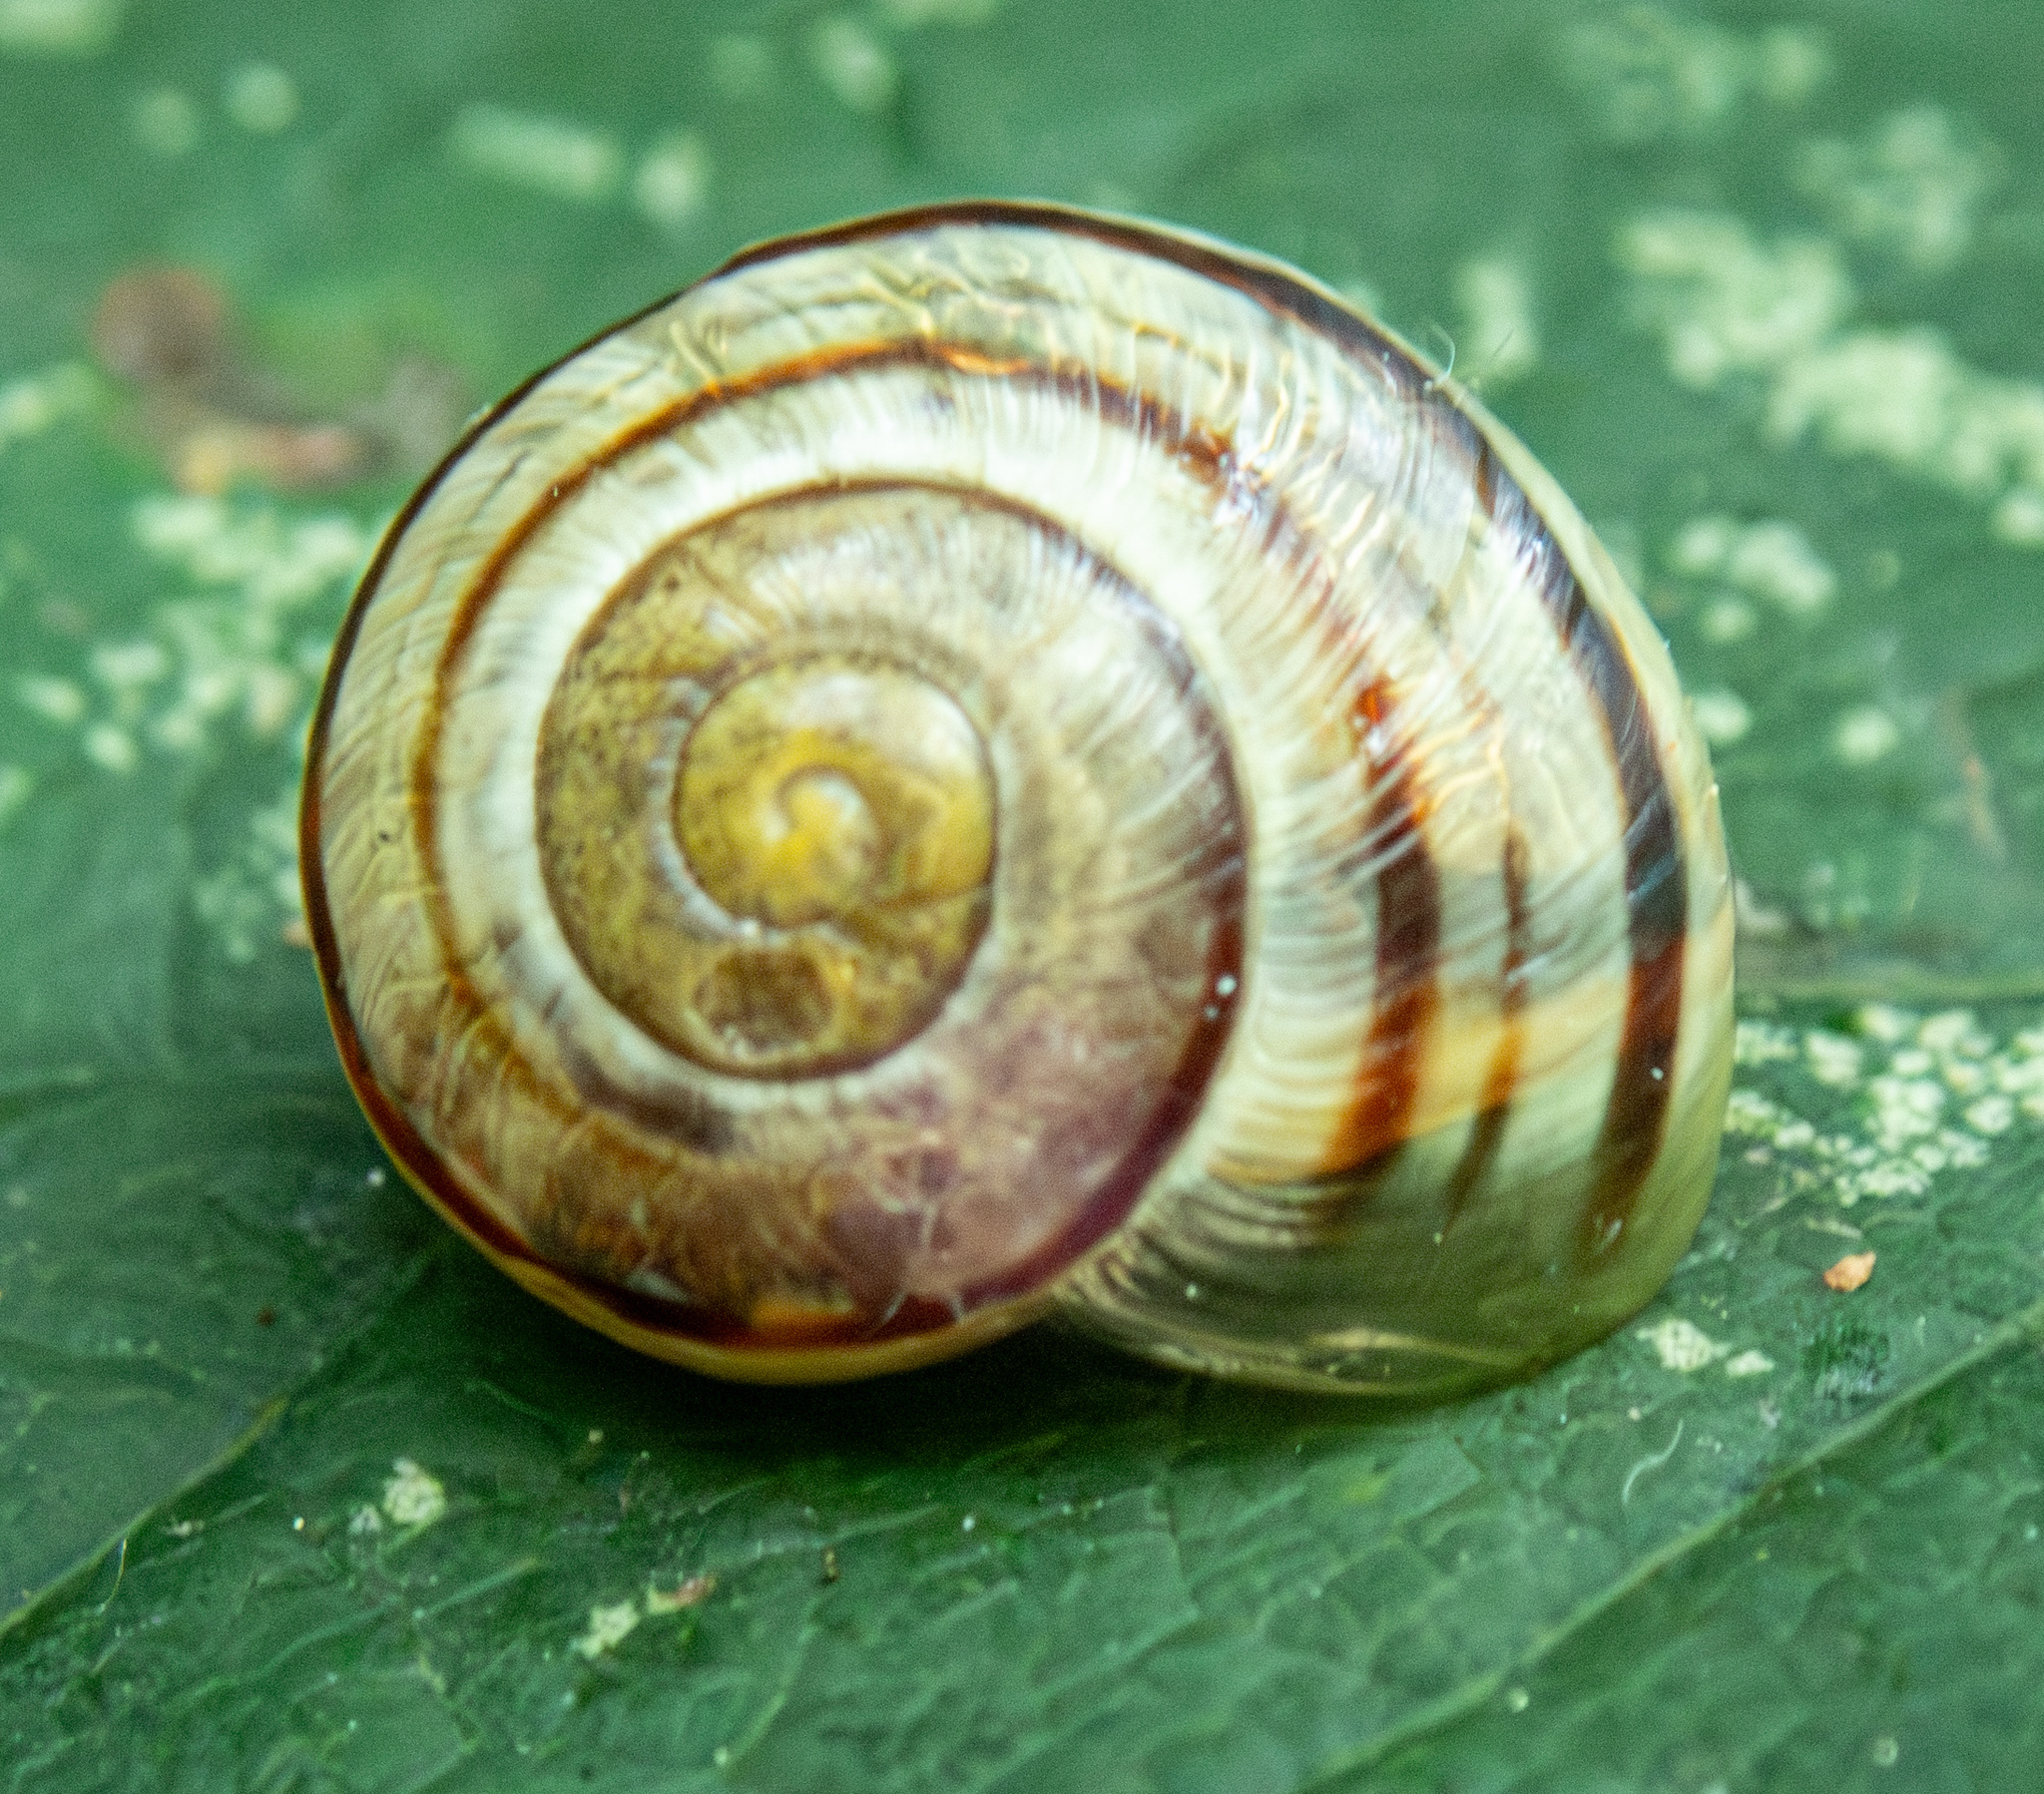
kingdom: Animalia
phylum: Mollusca
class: Gastropoda
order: Stylommatophora
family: Helicidae
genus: Cepaea
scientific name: Cepaea nemoralis
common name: Grovesnail
